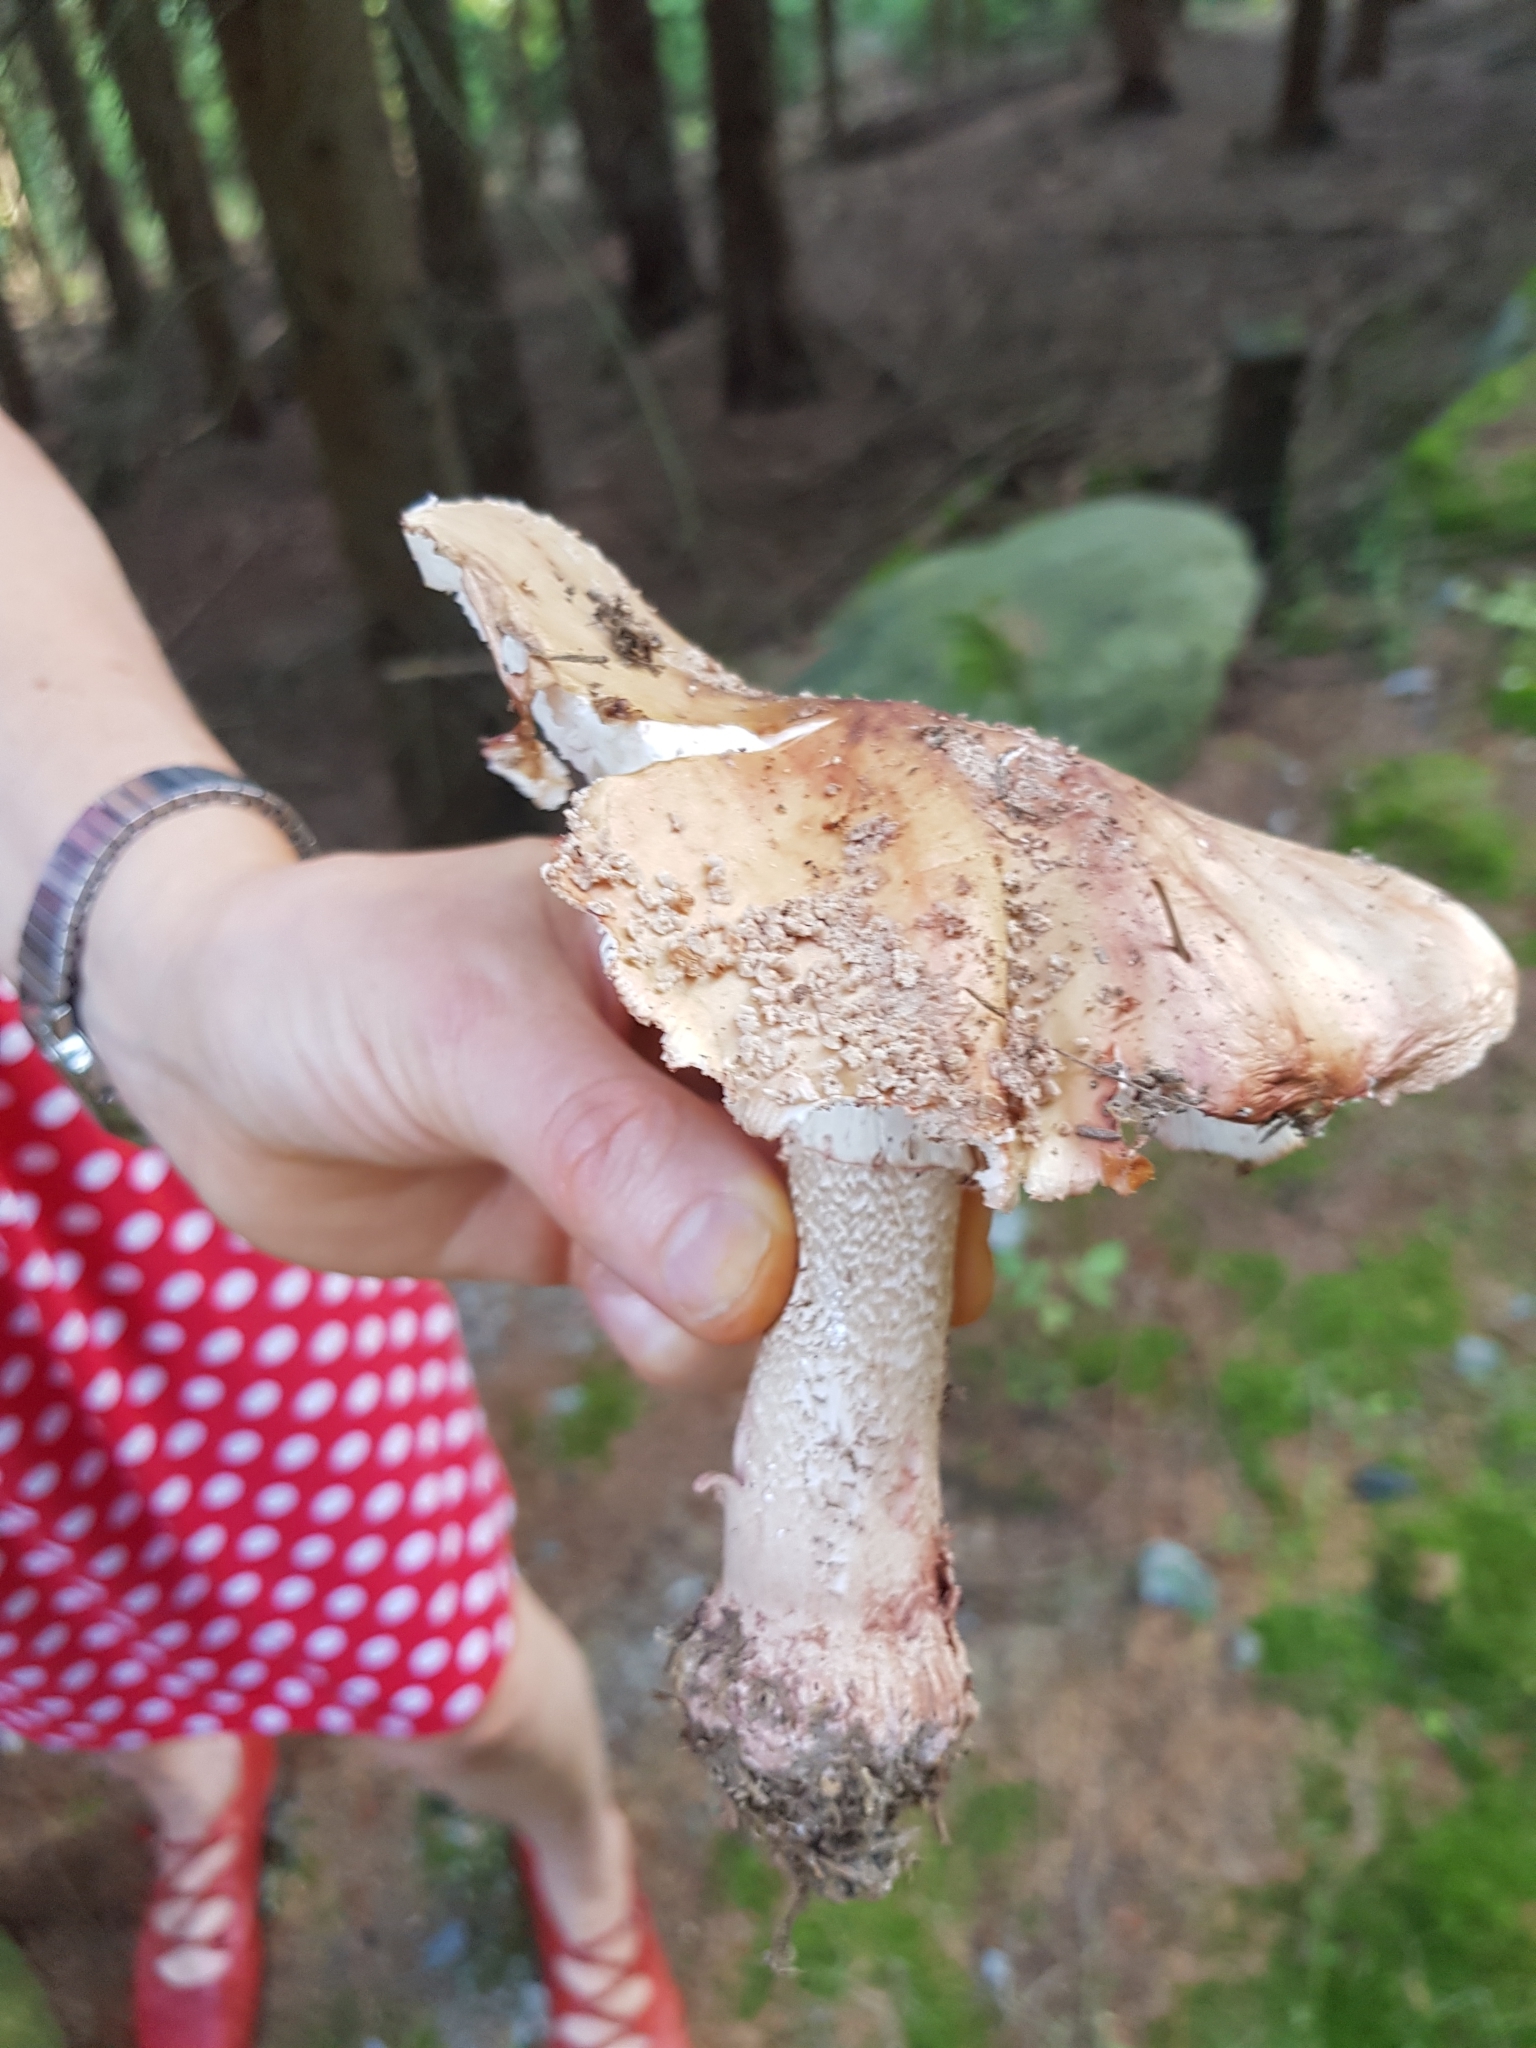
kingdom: Fungi
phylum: Basidiomycota
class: Agaricomycetes
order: Agaricales
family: Amanitaceae
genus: Amanita
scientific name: Amanita rubescens
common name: Blusher
